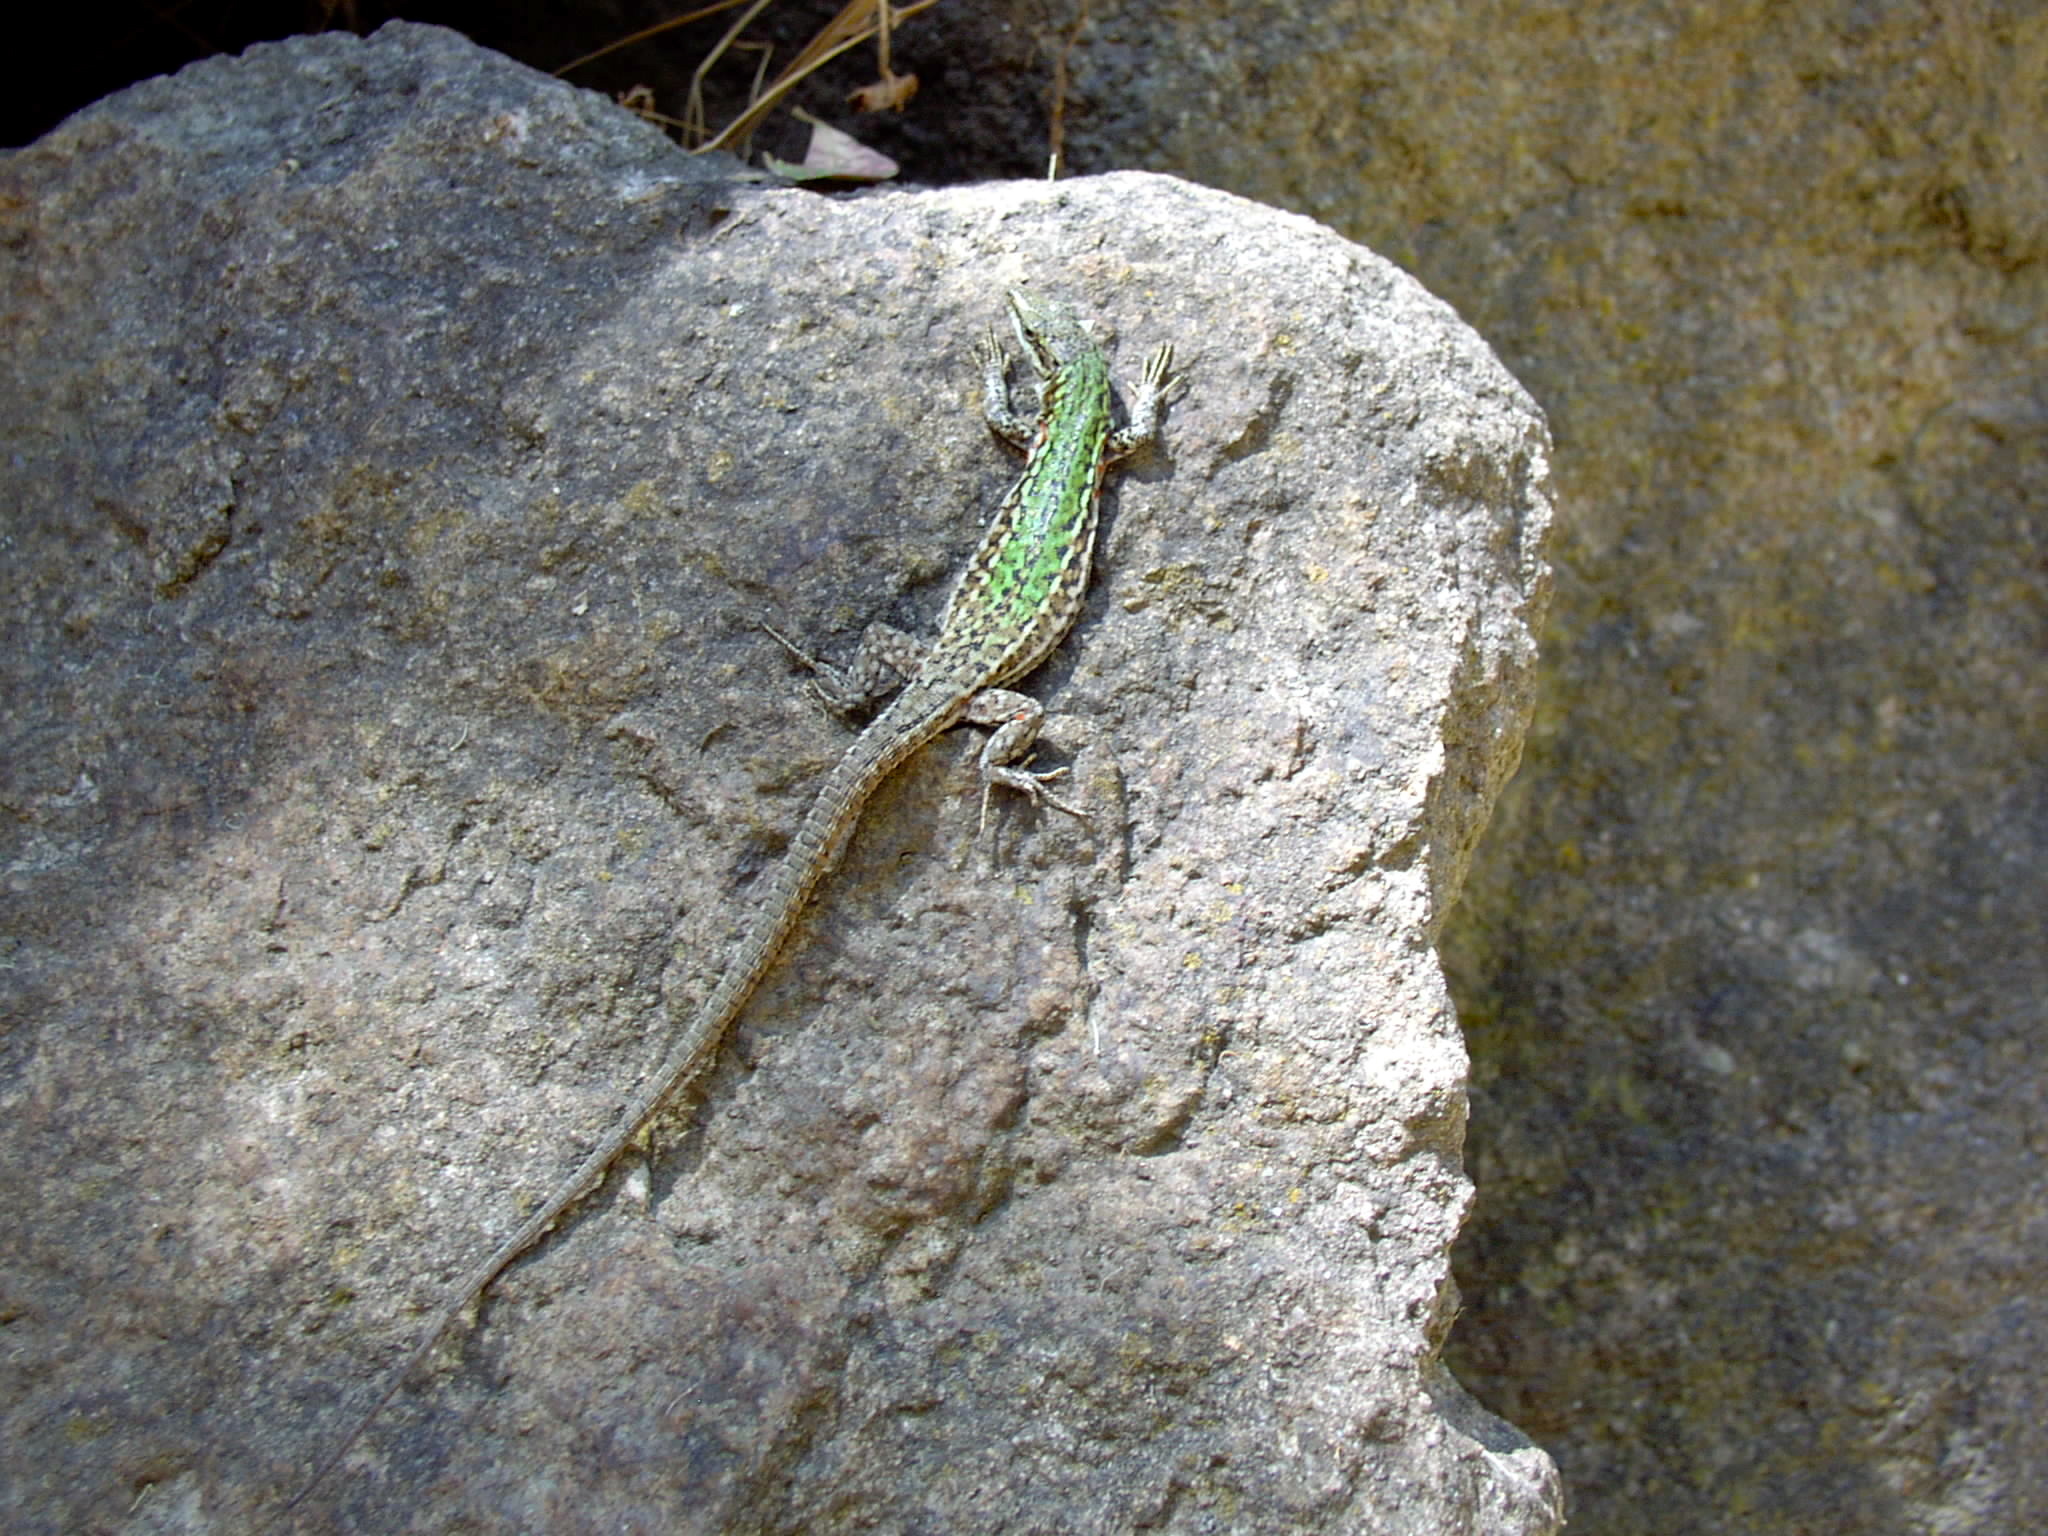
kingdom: Animalia
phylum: Chordata
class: Squamata
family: Lacertidae
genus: Podarcis
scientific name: Podarcis siculus
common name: Italian wall lizard
